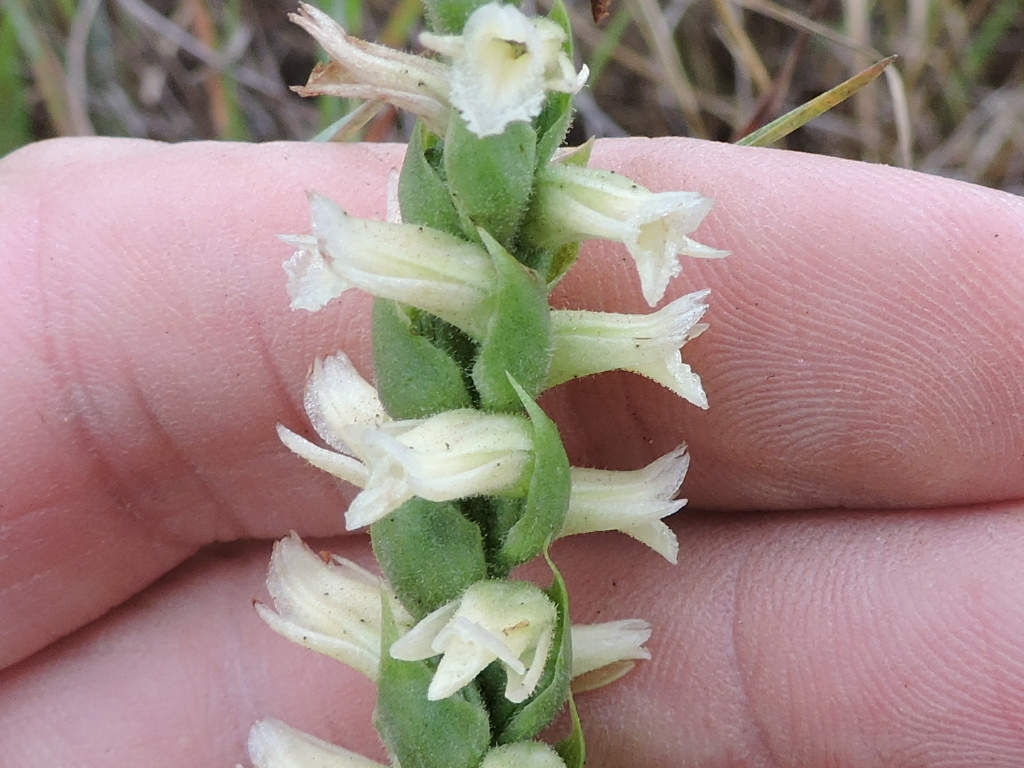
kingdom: Plantae
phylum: Tracheophyta
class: Liliopsida
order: Asparagales
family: Orchidaceae
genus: Spiranthes
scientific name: Spiranthes magnicamporum
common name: Great plains ladies'-tresses
